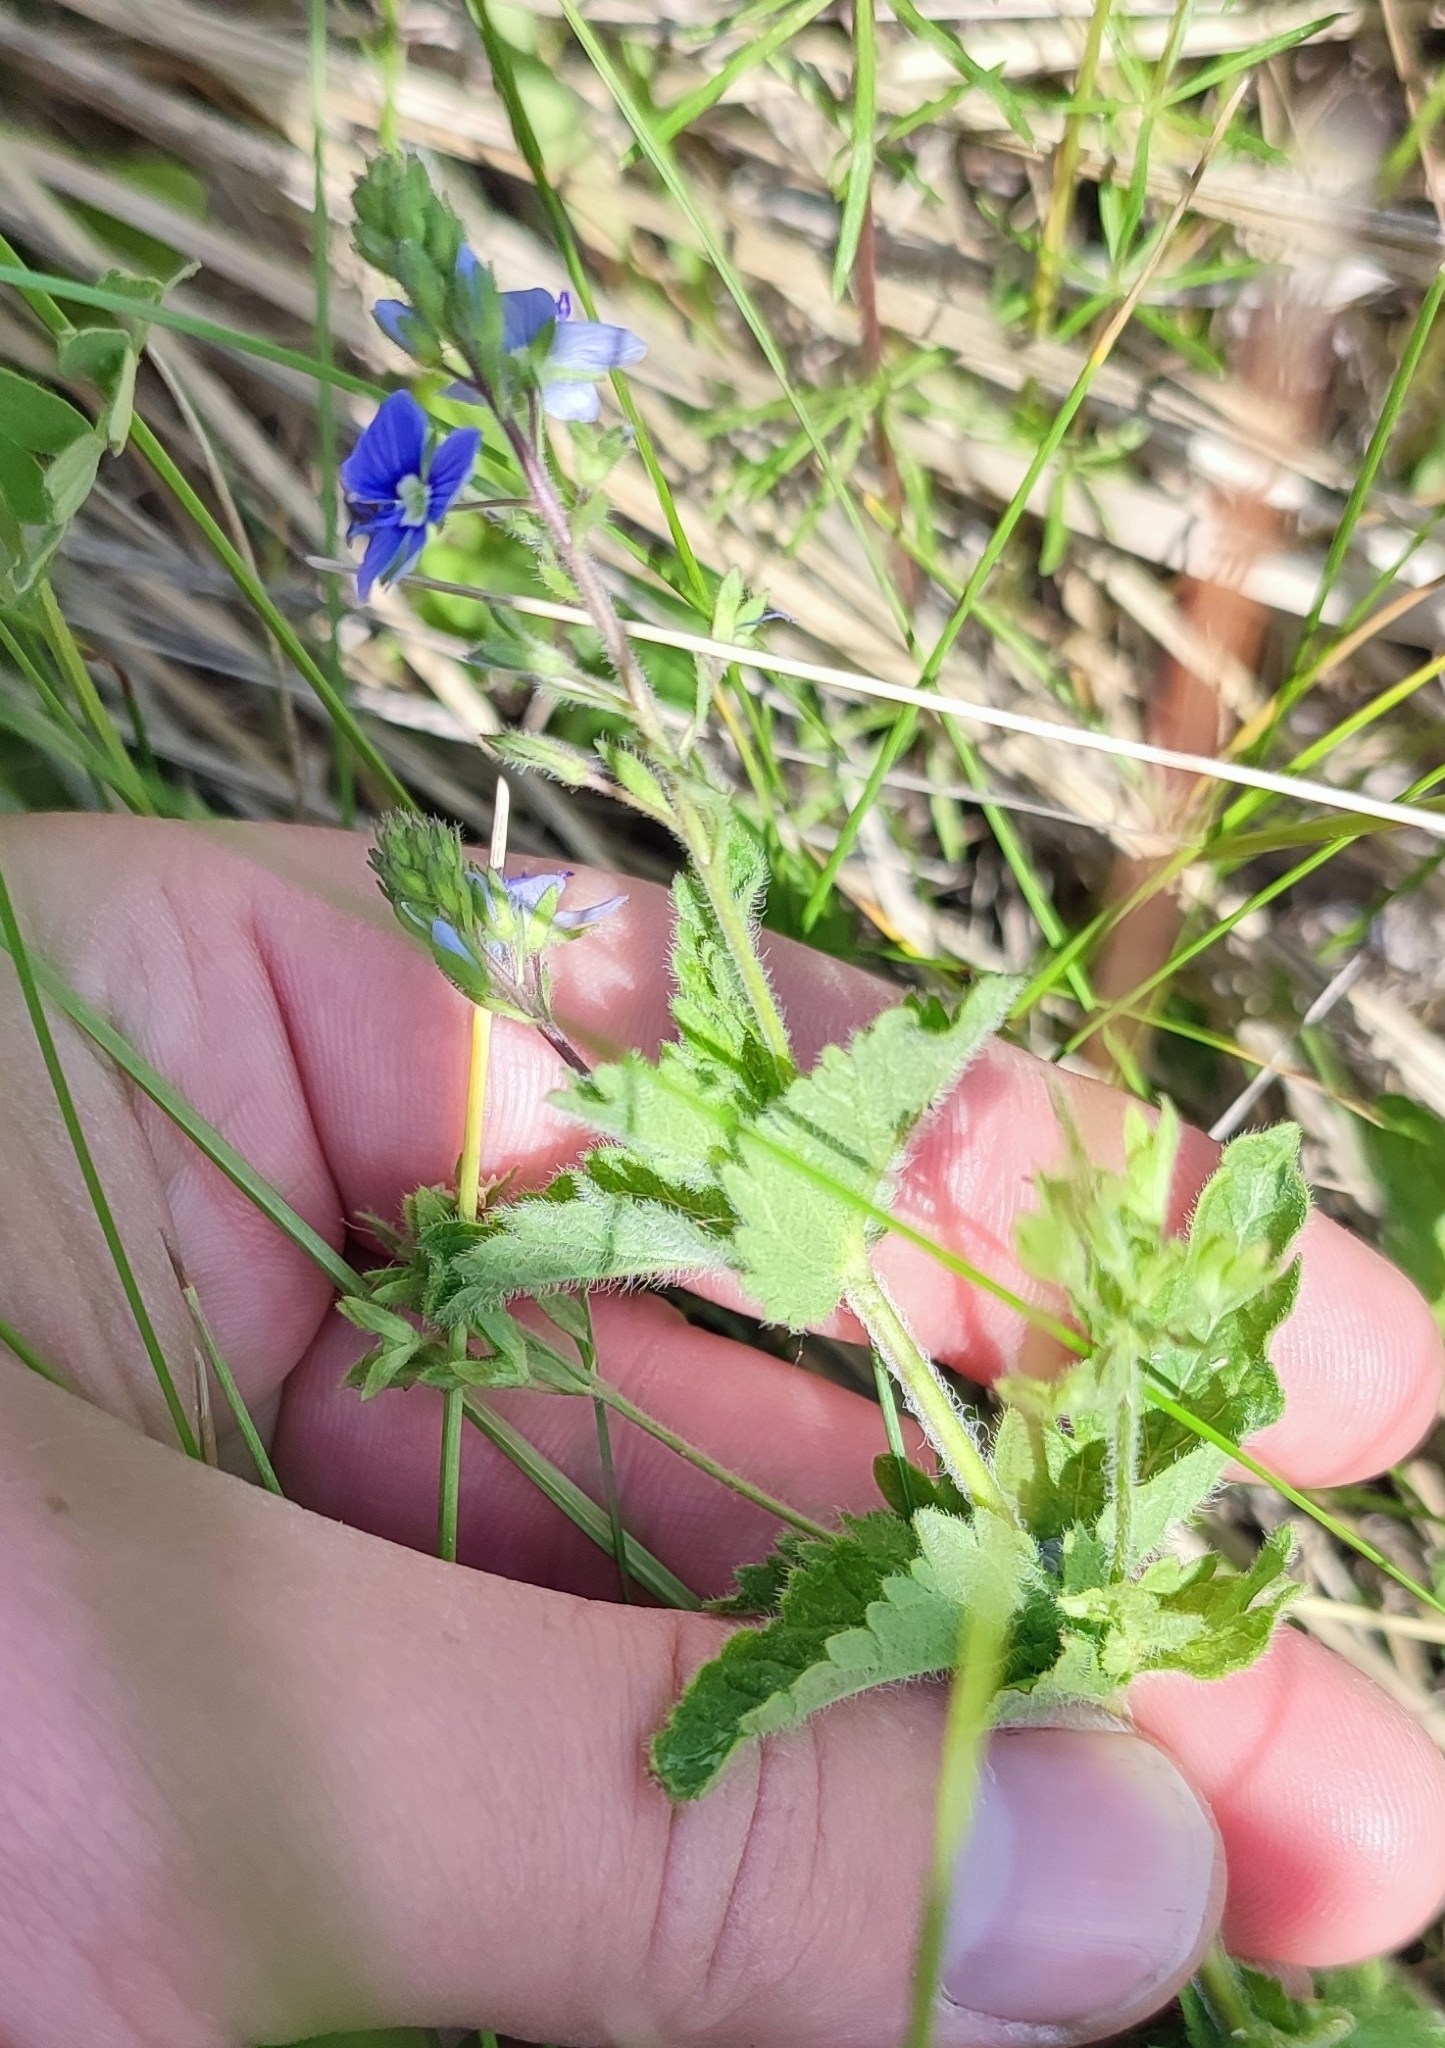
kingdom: Plantae
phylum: Tracheophyta
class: Magnoliopsida
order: Lamiales
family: Plantaginaceae
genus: Veronica
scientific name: Veronica chamaedrys
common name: Germander speedwell
